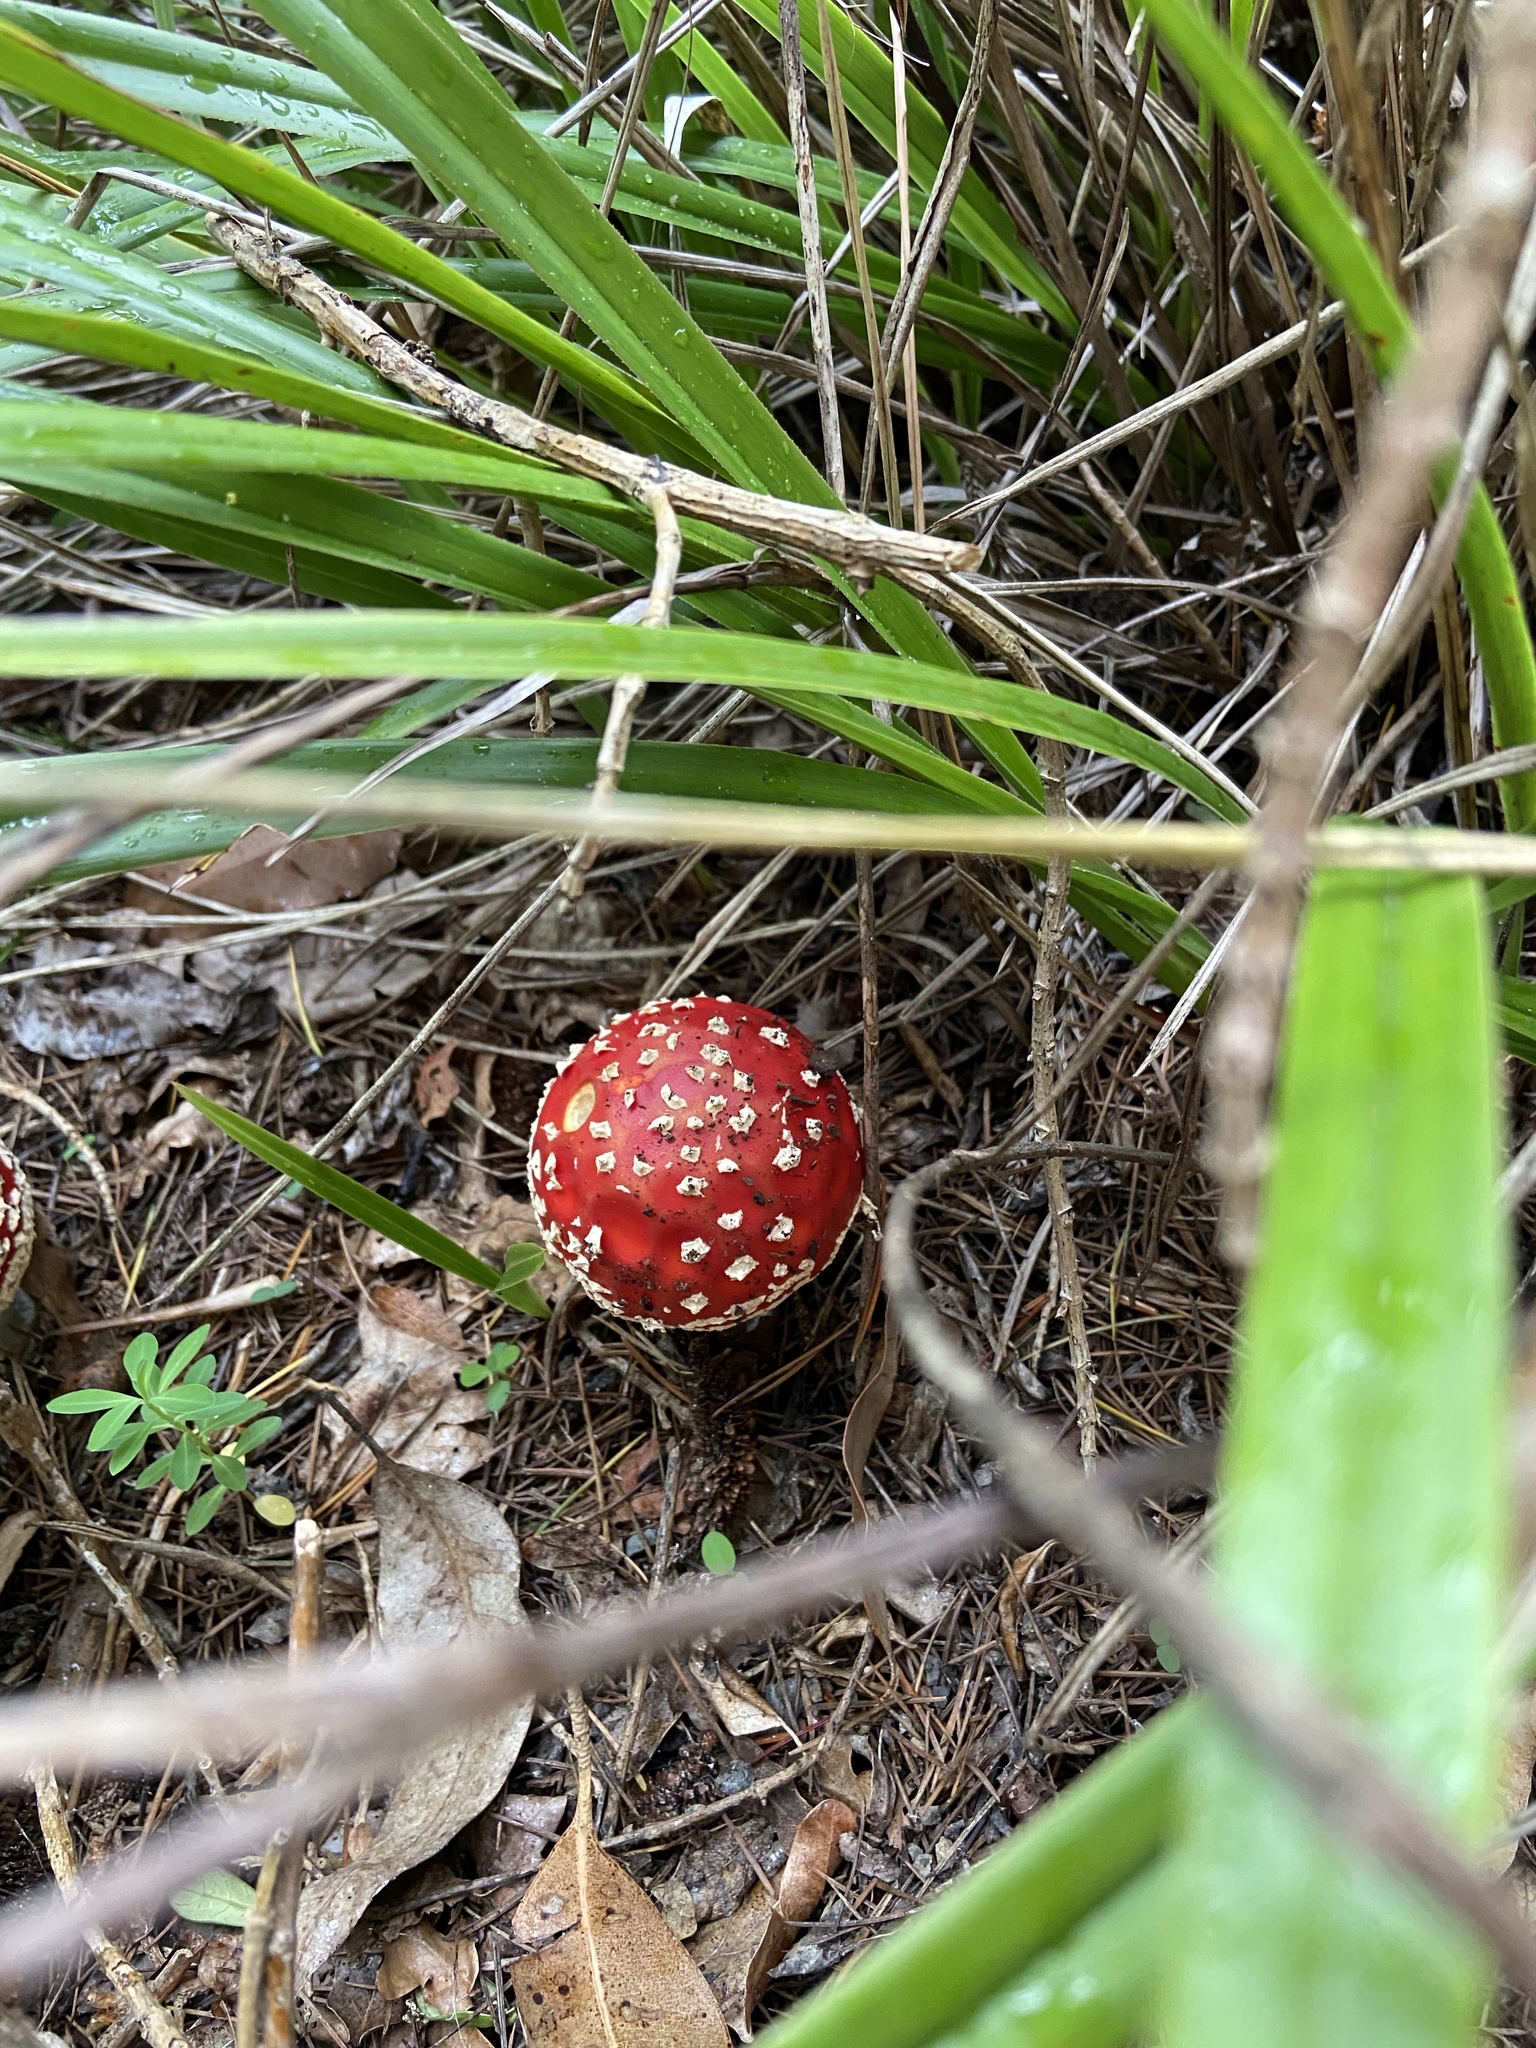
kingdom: Fungi
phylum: Basidiomycota
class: Agaricomycetes
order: Agaricales
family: Amanitaceae
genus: Amanita
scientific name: Amanita muscaria
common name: Fly agaric
